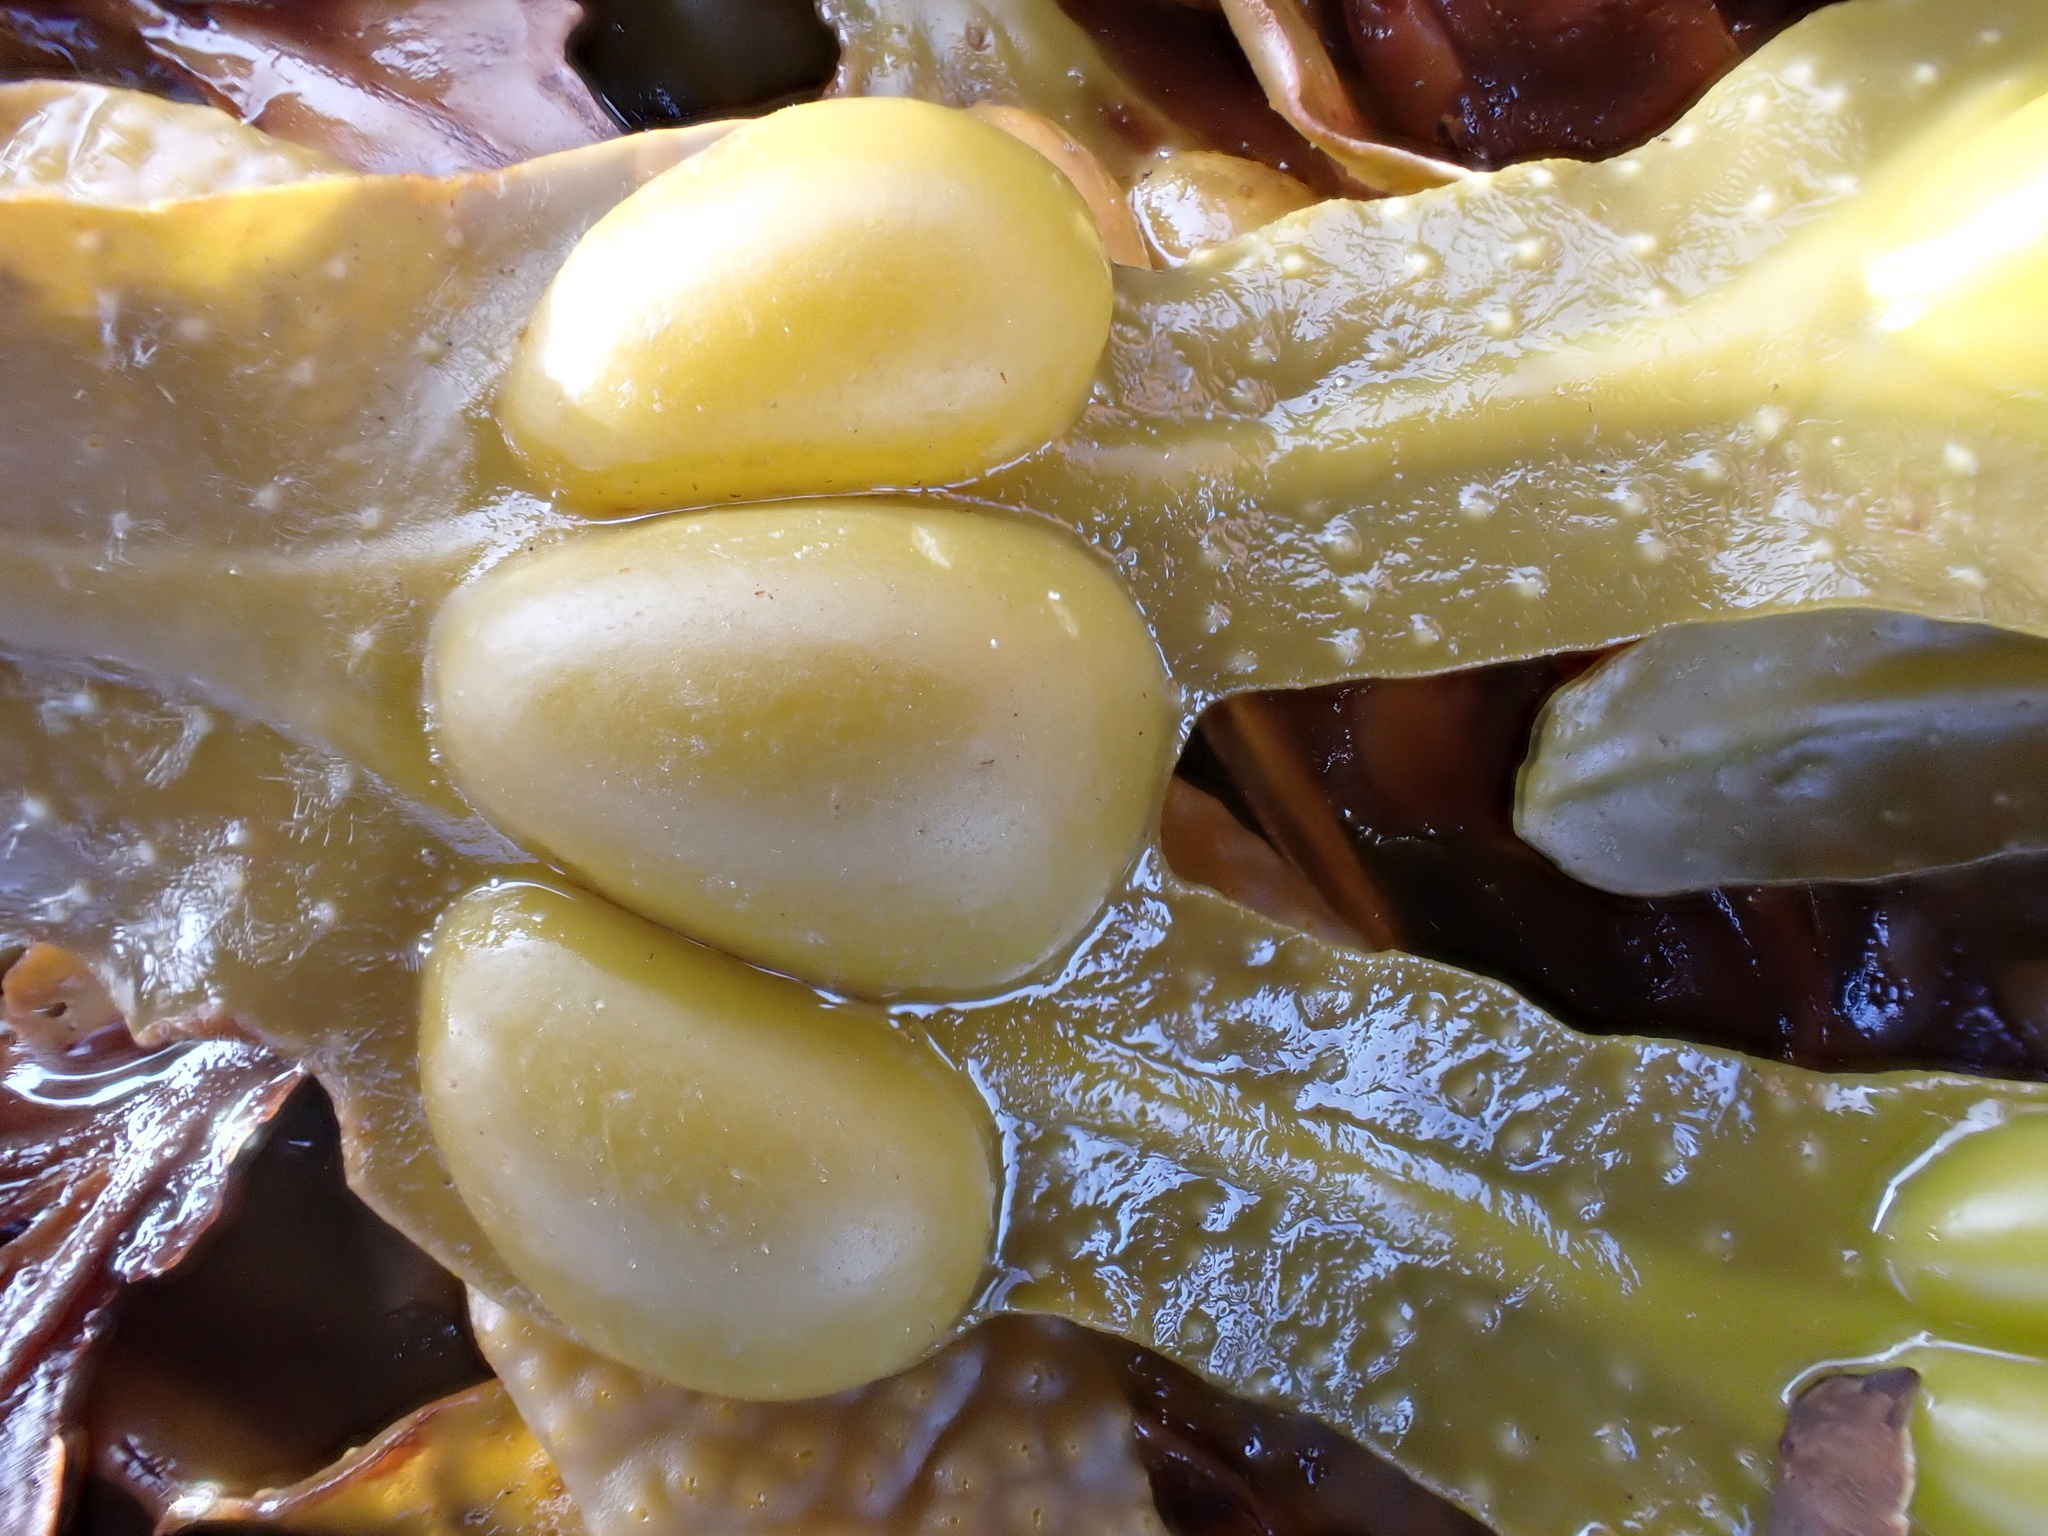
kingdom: Chromista
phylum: Ochrophyta
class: Phaeophyceae
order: Fucales
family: Fucaceae
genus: Fucus
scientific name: Fucus vesiculosus
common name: Bladder wrack
